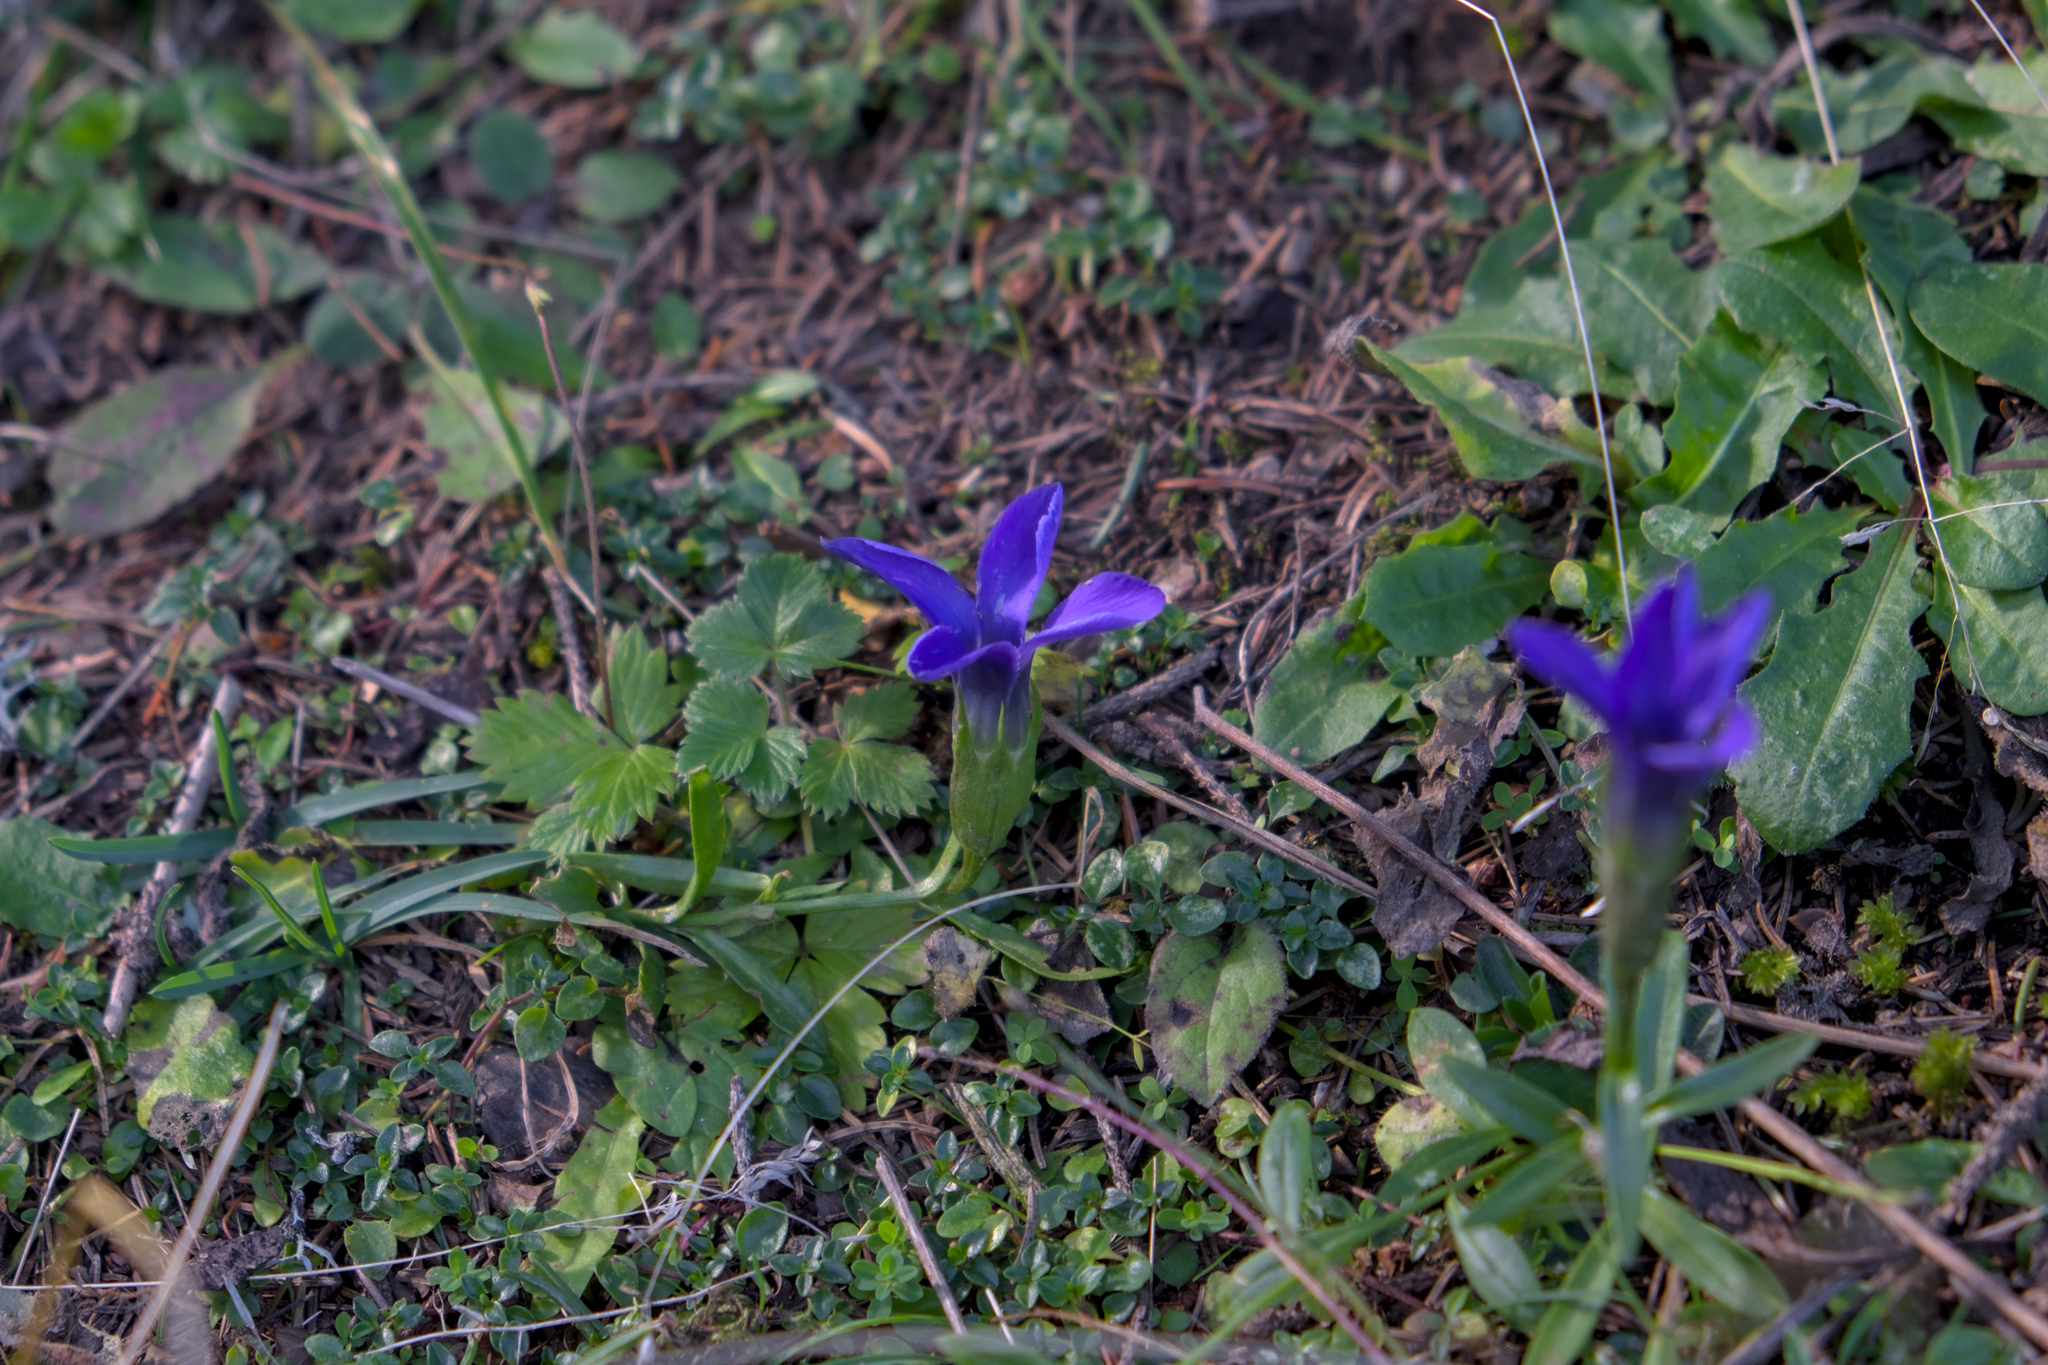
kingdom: Plantae
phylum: Tracheophyta
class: Magnoliopsida
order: Gentianales
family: Gentianaceae
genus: Gentianopsis
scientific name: Gentianopsis ciliata
